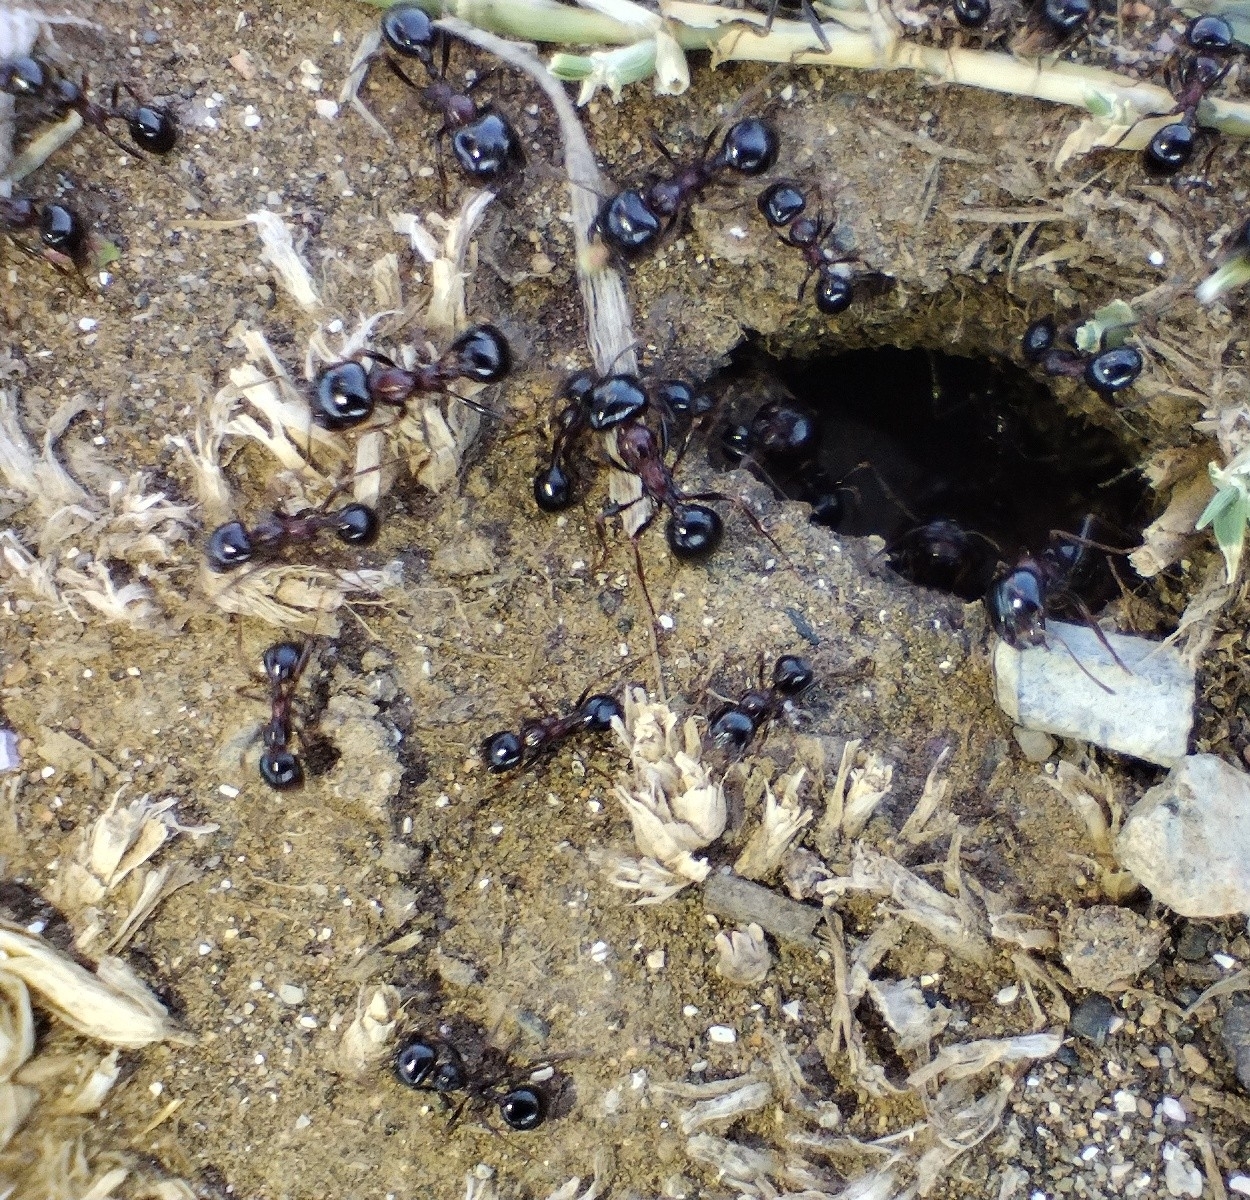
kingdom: Animalia
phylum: Arthropoda
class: Insecta
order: Hymenoptera
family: Formicidae
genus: Messor
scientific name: Messor wasmanni
